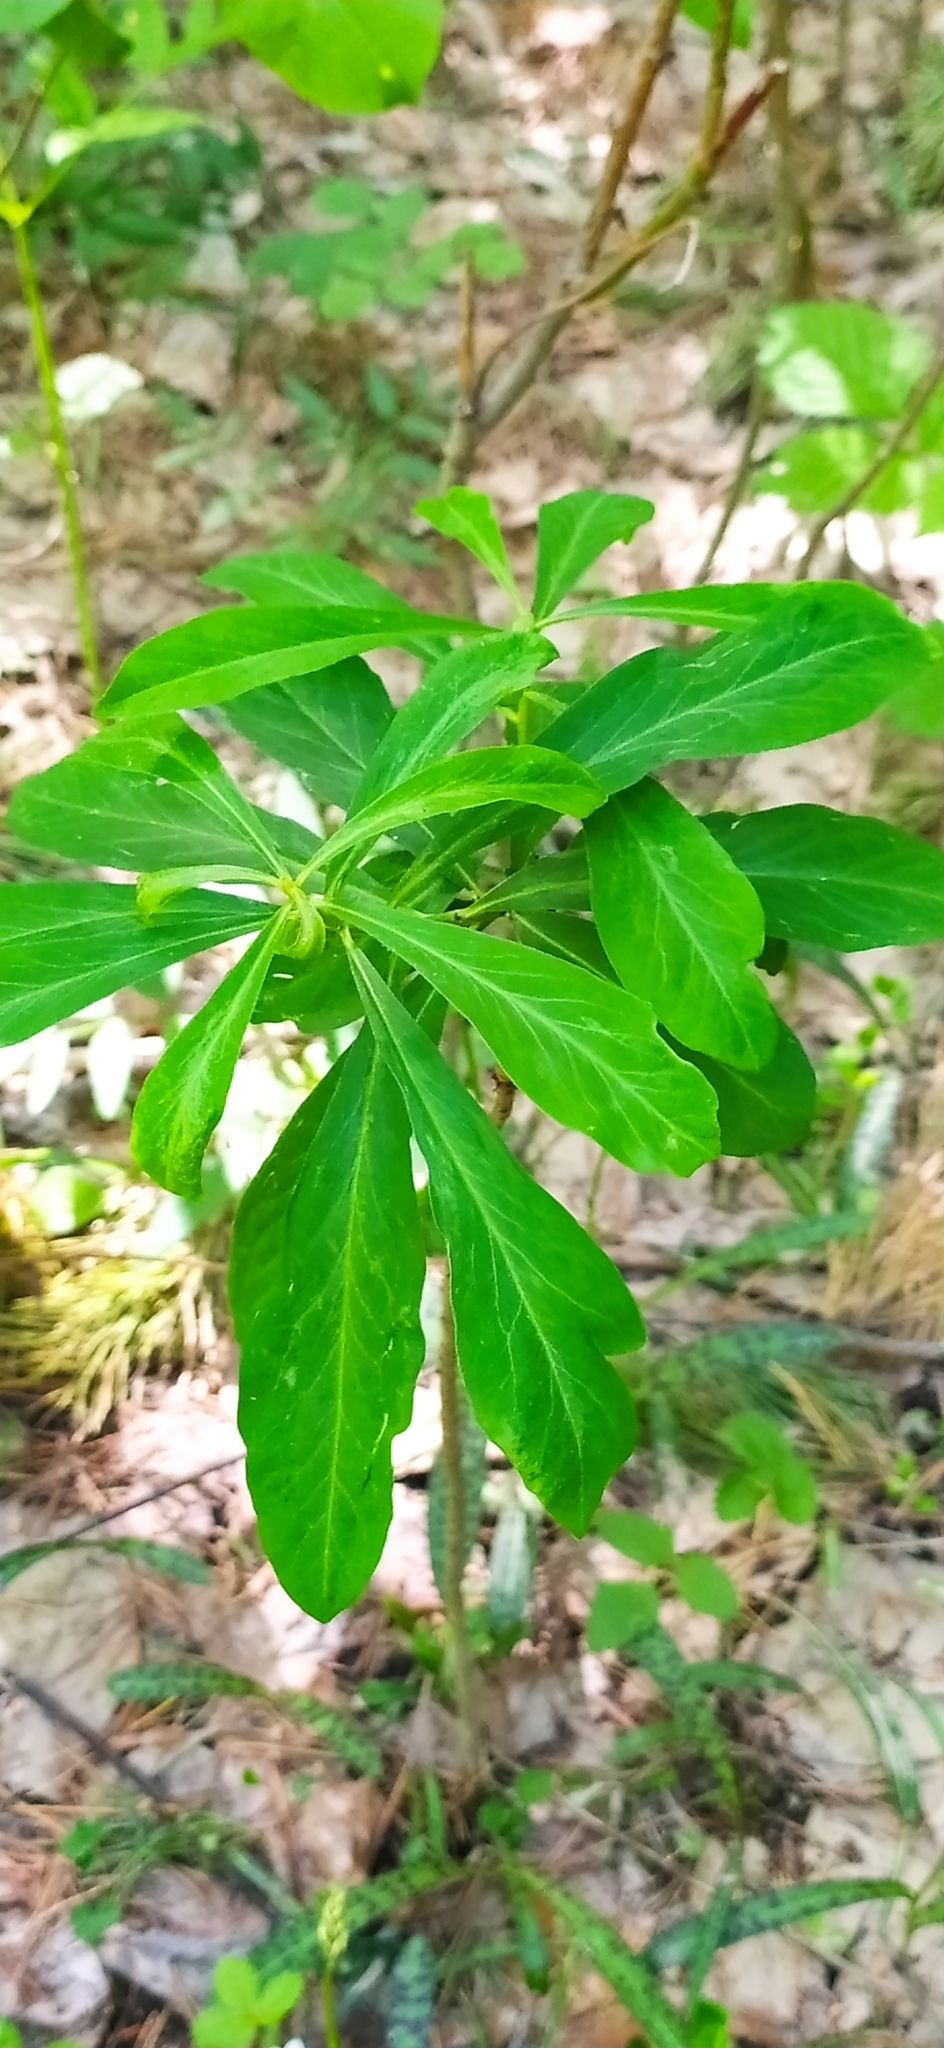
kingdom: Plantae
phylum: Tracheophyta
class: Magnoliopsida
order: Malvales
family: Thymelaeaceae
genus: Daphne
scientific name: Daphne mezereum
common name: Mezereon
